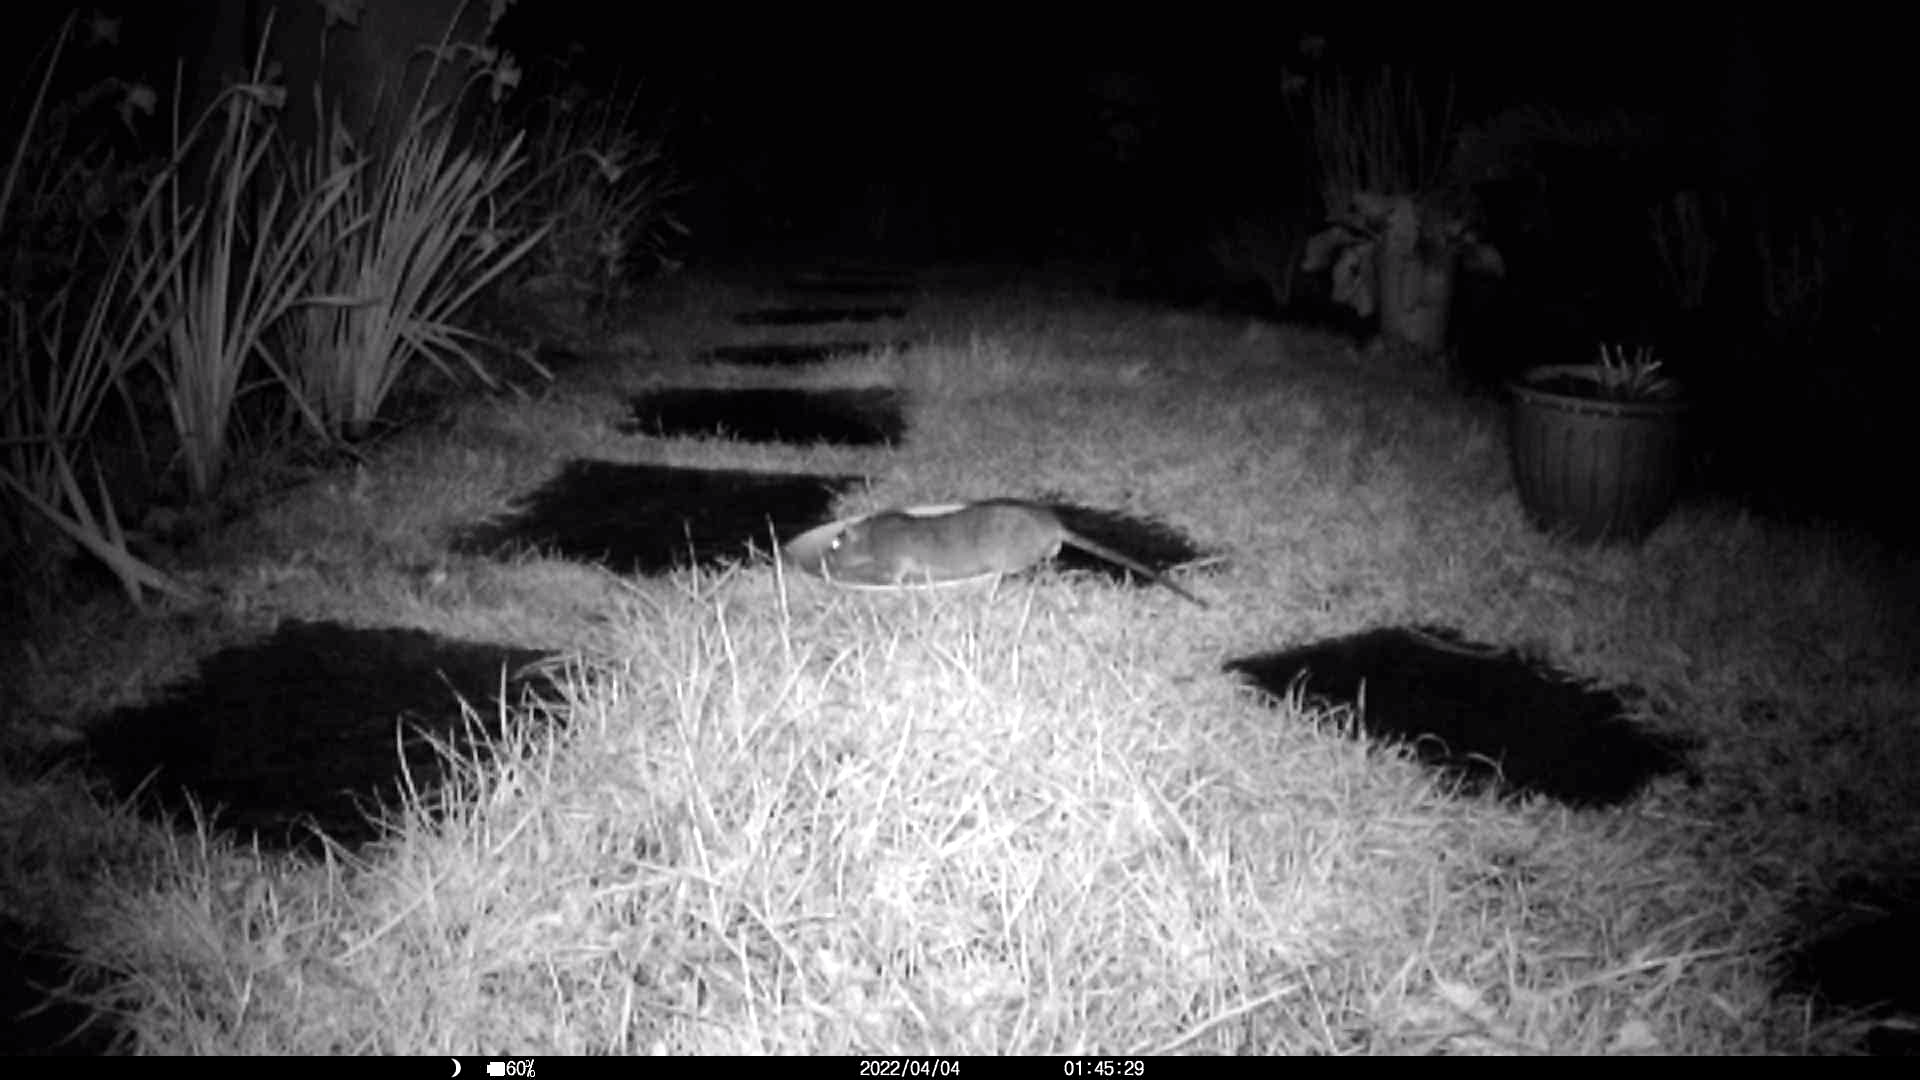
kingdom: Animalia
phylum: Chordata
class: Mammalia
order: Rodentia
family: Muridae
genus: Rattus
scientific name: Rattus norvegicus
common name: Brown rat
